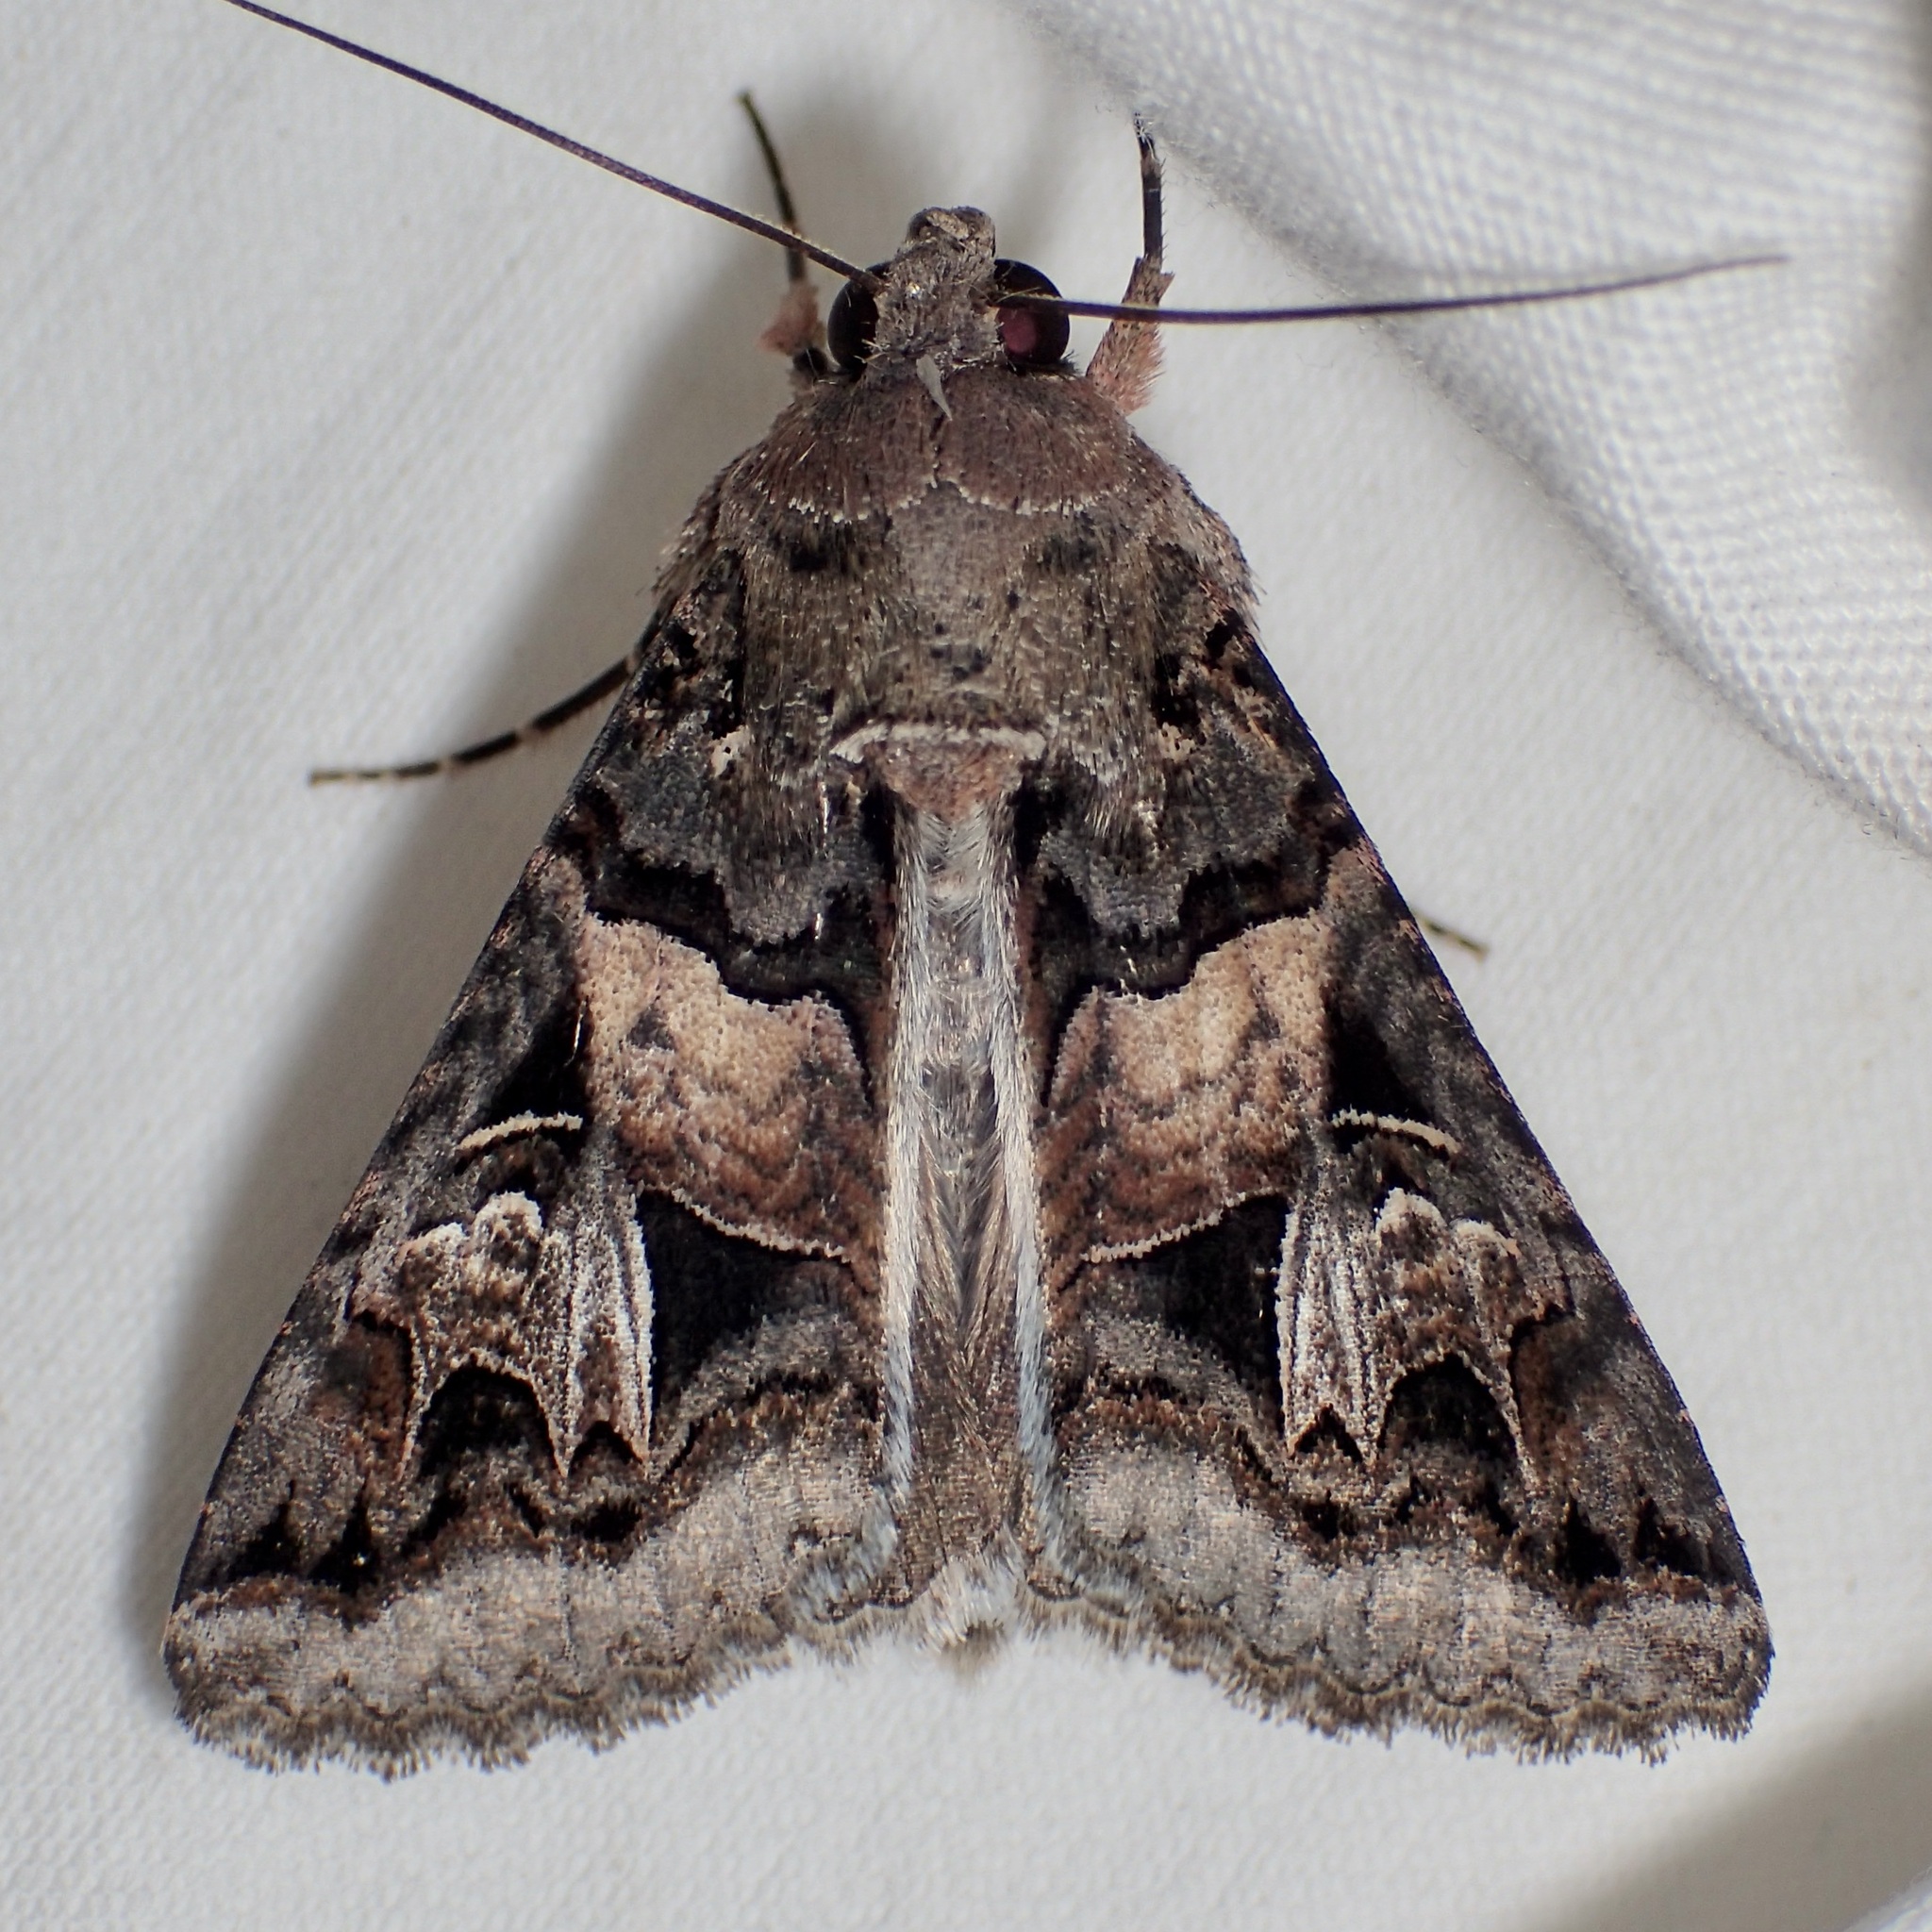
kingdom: Animalia
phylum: Arthropoda
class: Insecta
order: Lepidoptera
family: Erebidae
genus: Melipotis
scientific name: Melipotis novanda
